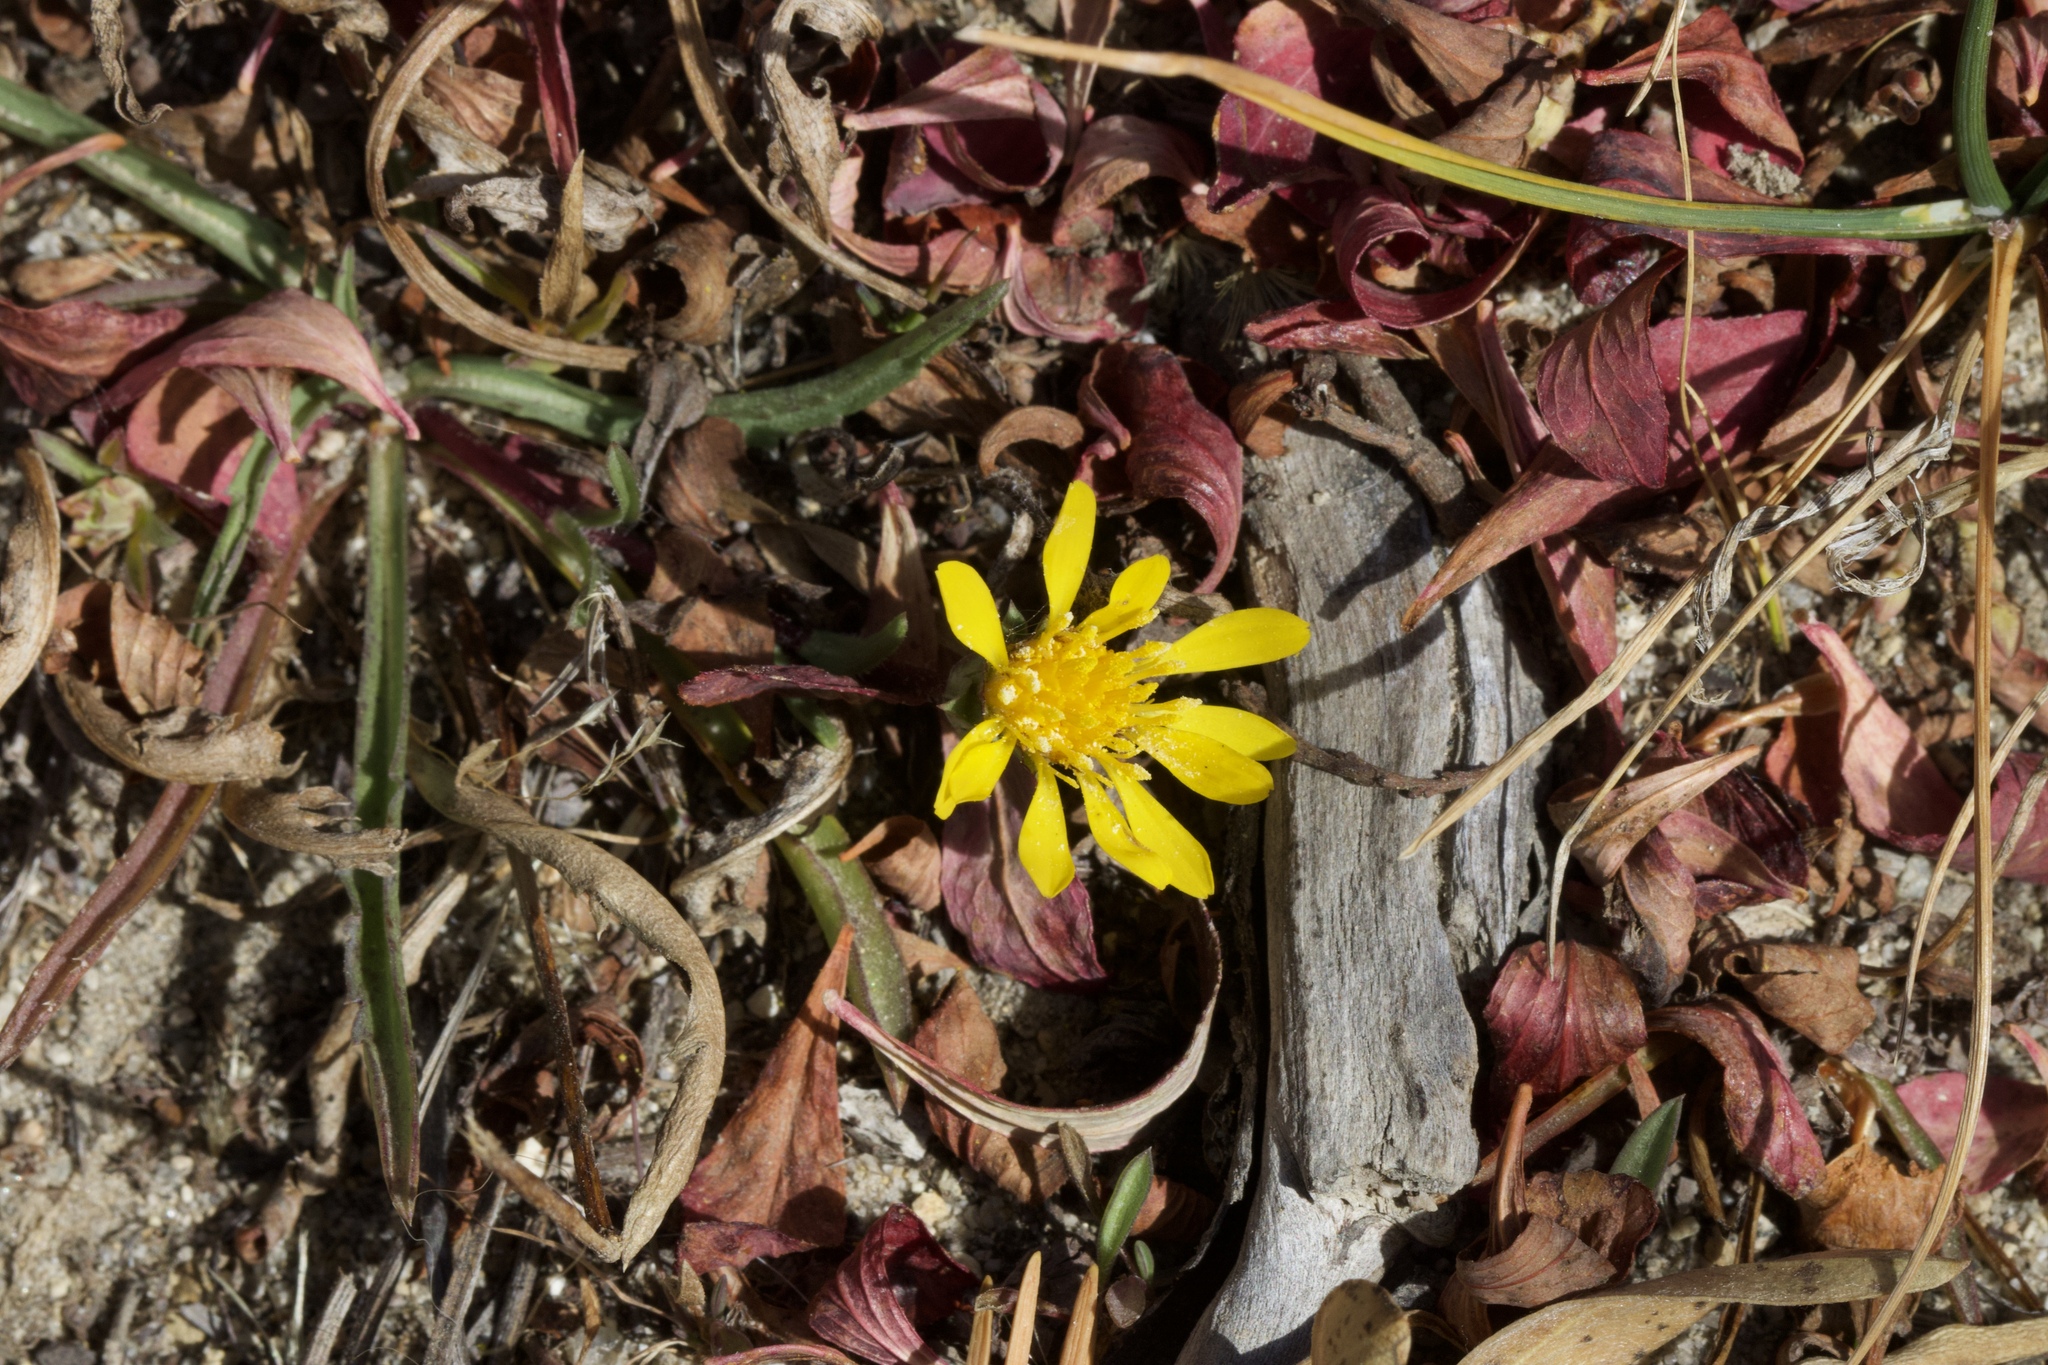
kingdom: Plantae
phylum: Tracheophyta
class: Magnoliopsida
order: Asterales
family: Asteraceae
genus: Pyrrocoma
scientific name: Pyrrocoma apargioides
